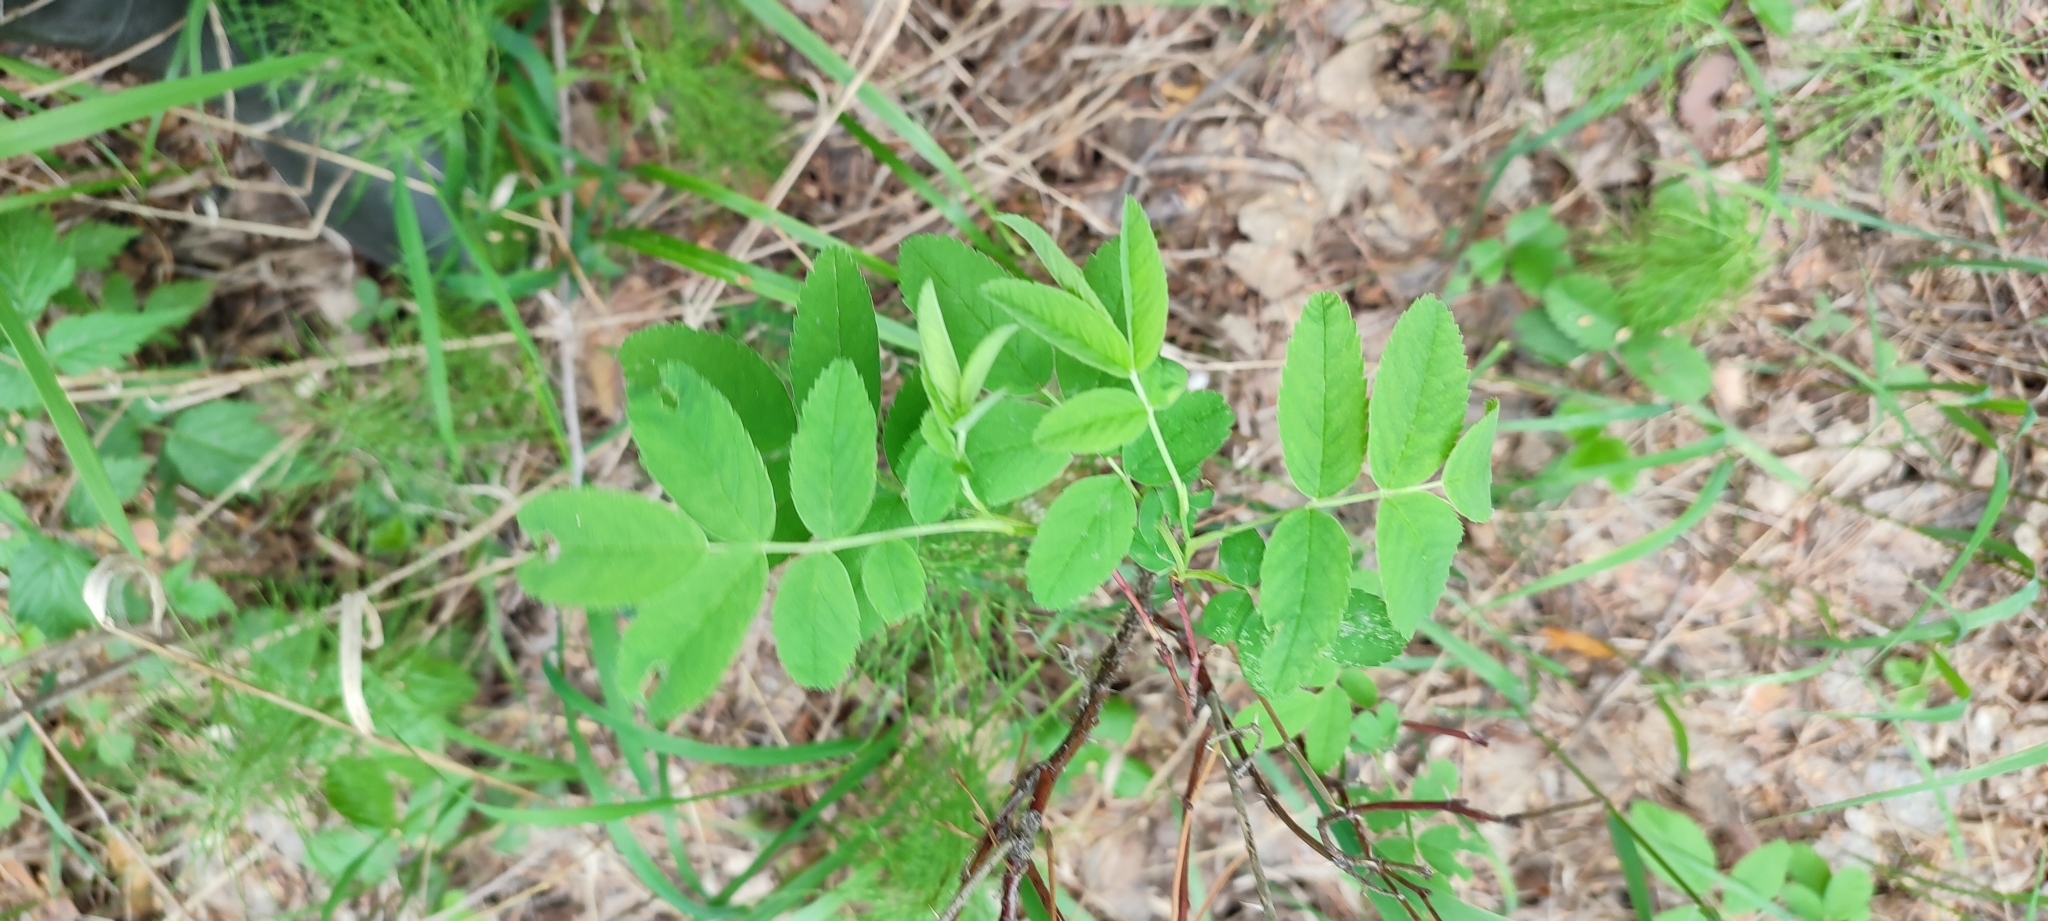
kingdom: Plantae
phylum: Tracheophyta
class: Magnoliopsida
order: Rosales
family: Rosaceae
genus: Rosa
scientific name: Rosa majalis
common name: Cinnamon rose
